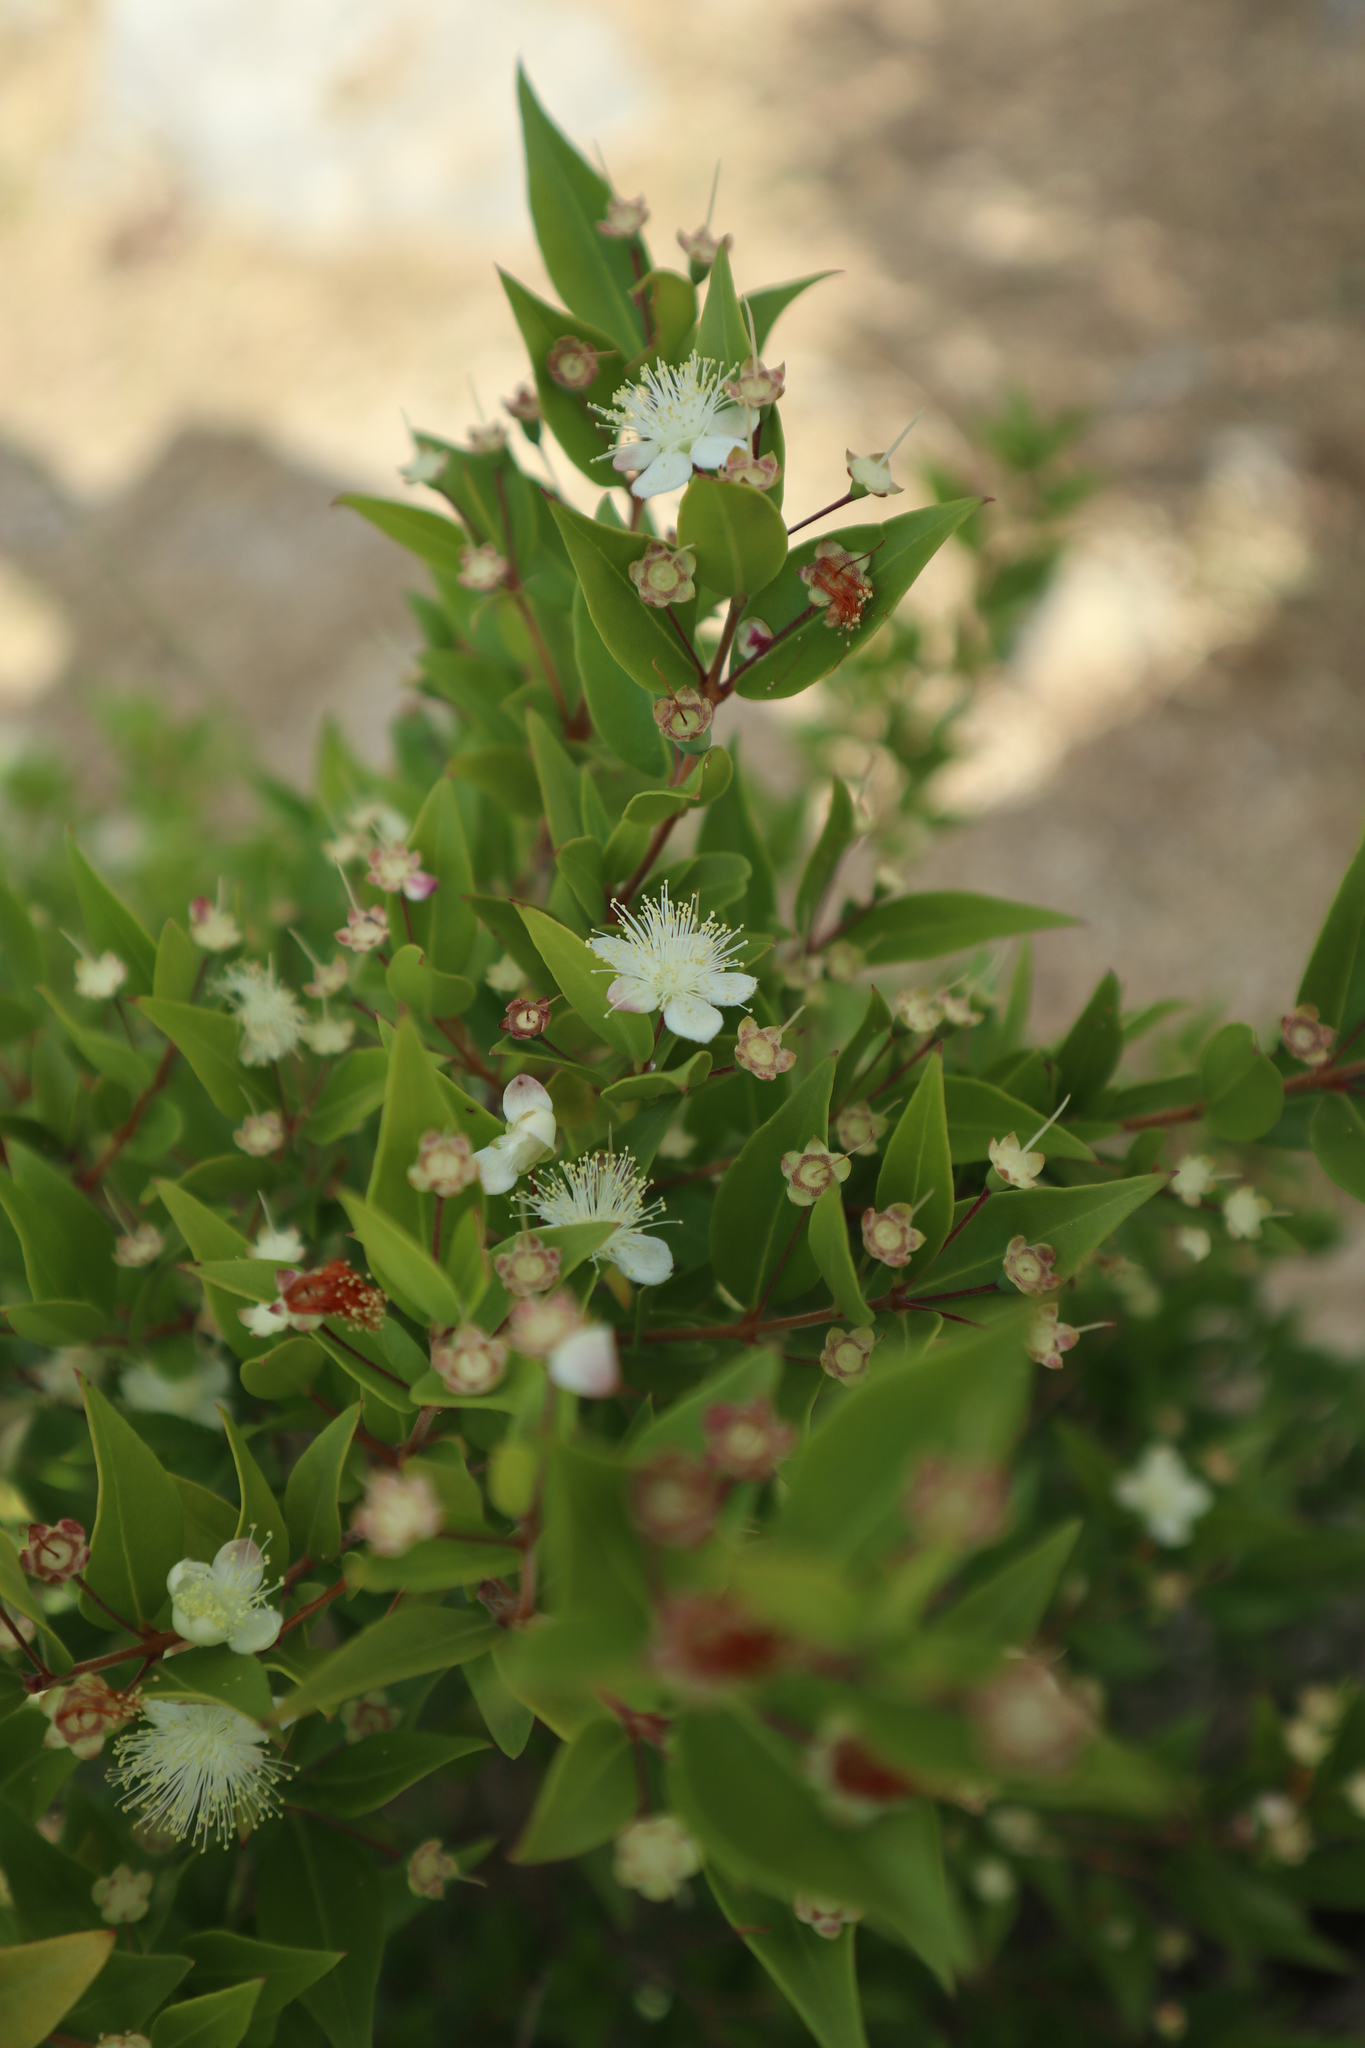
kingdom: Plantae
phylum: Tracheophyta
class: Magnoliopsida
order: Myrtales
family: Myrtaceae
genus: Myrtus
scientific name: Myrtus communis
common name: Myrtle
